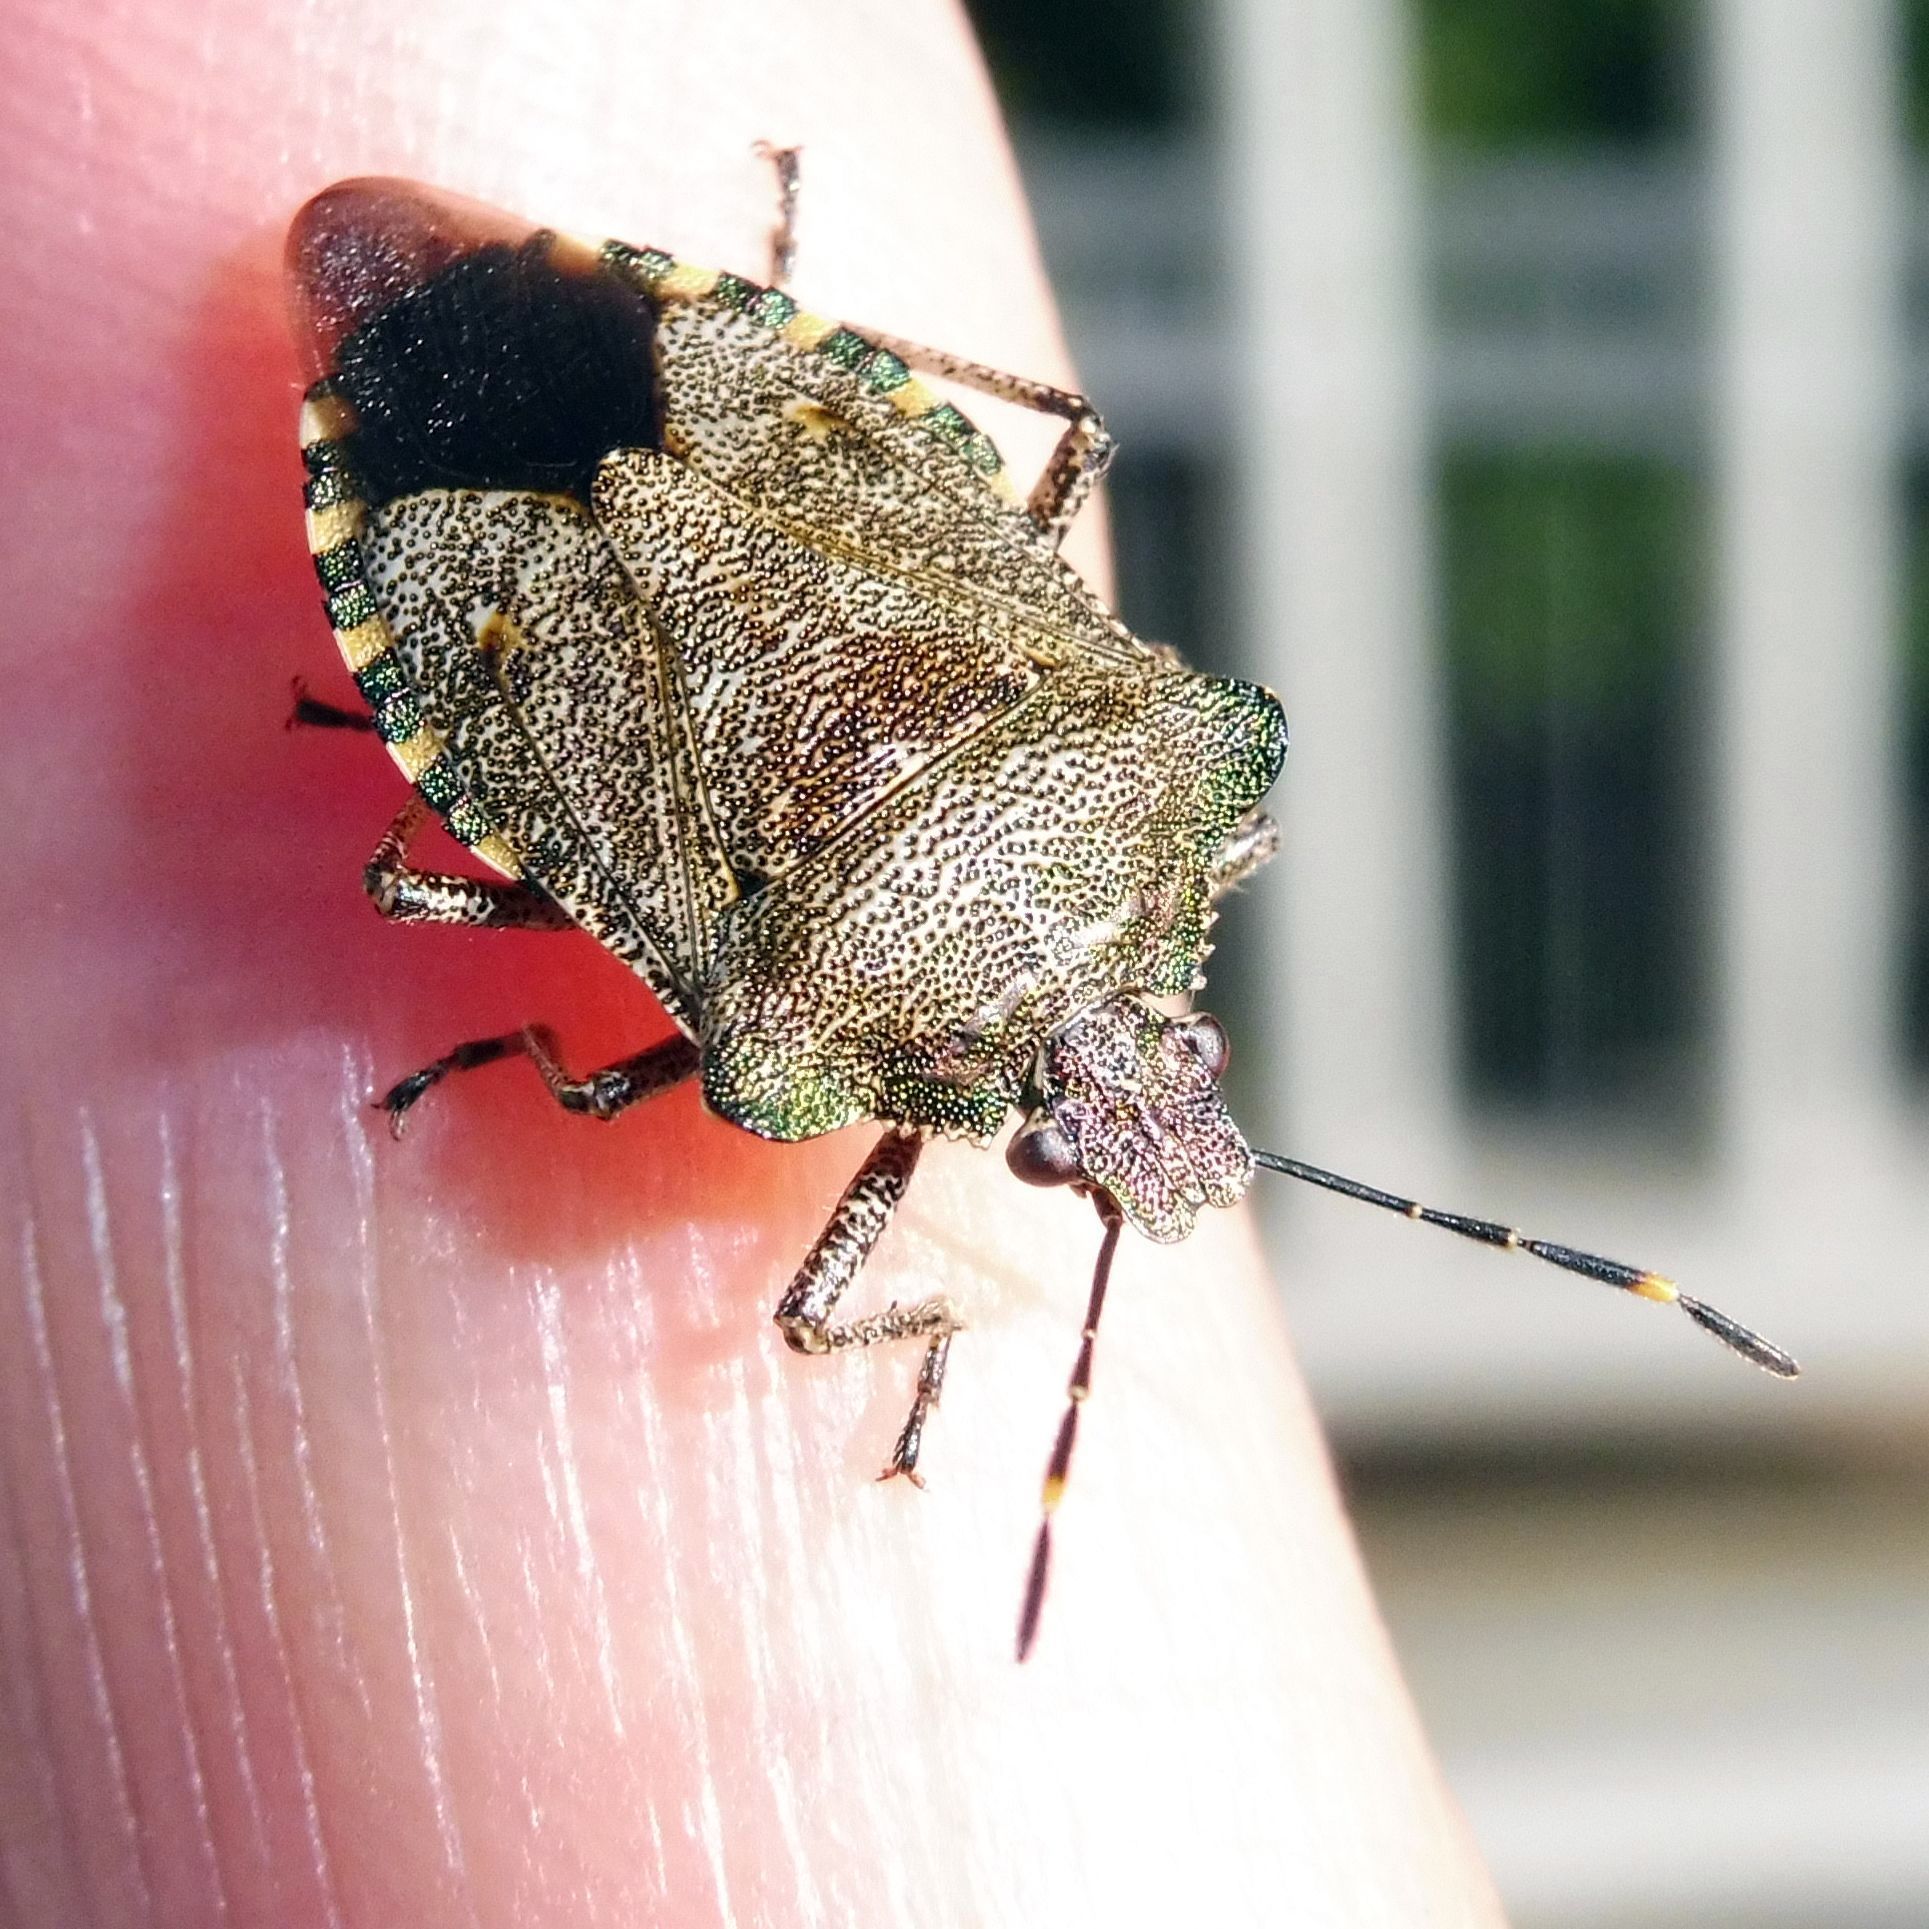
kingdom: Animalia
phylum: Arthropoda
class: Insecta
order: Hemiptera
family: Pentatomidae
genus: Troilus
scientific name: Troilus luridus
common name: Bronze shieldbug
